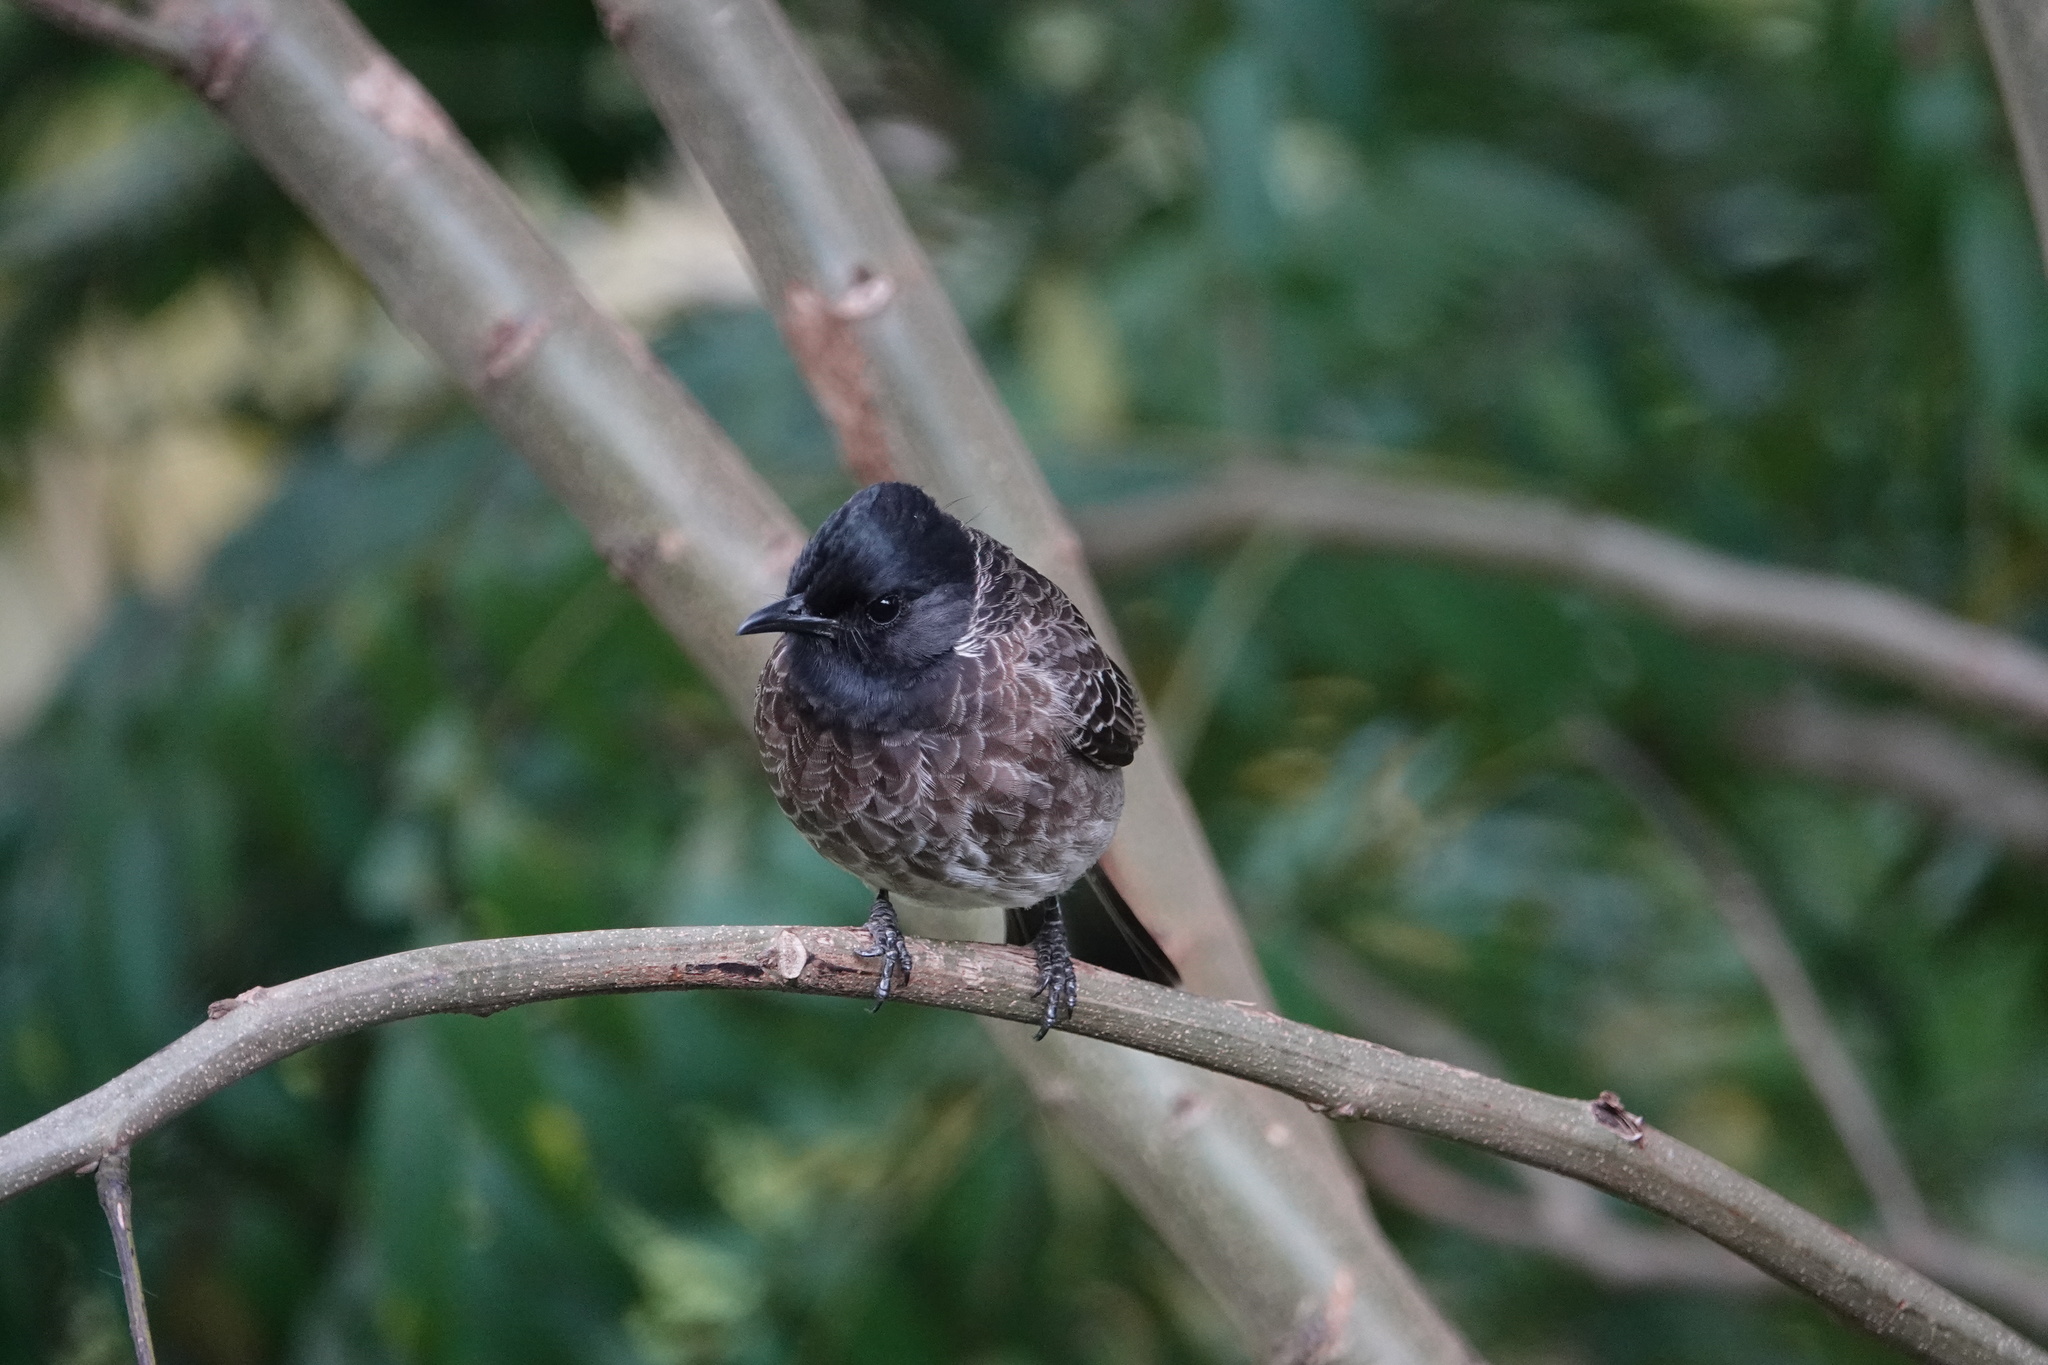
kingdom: Animalia
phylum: Chordata
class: Aves
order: Passeriformes
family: Pycnonotidae
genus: Pycnonotus
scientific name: Pycnonotus cafer
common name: Red-vented bulbul
